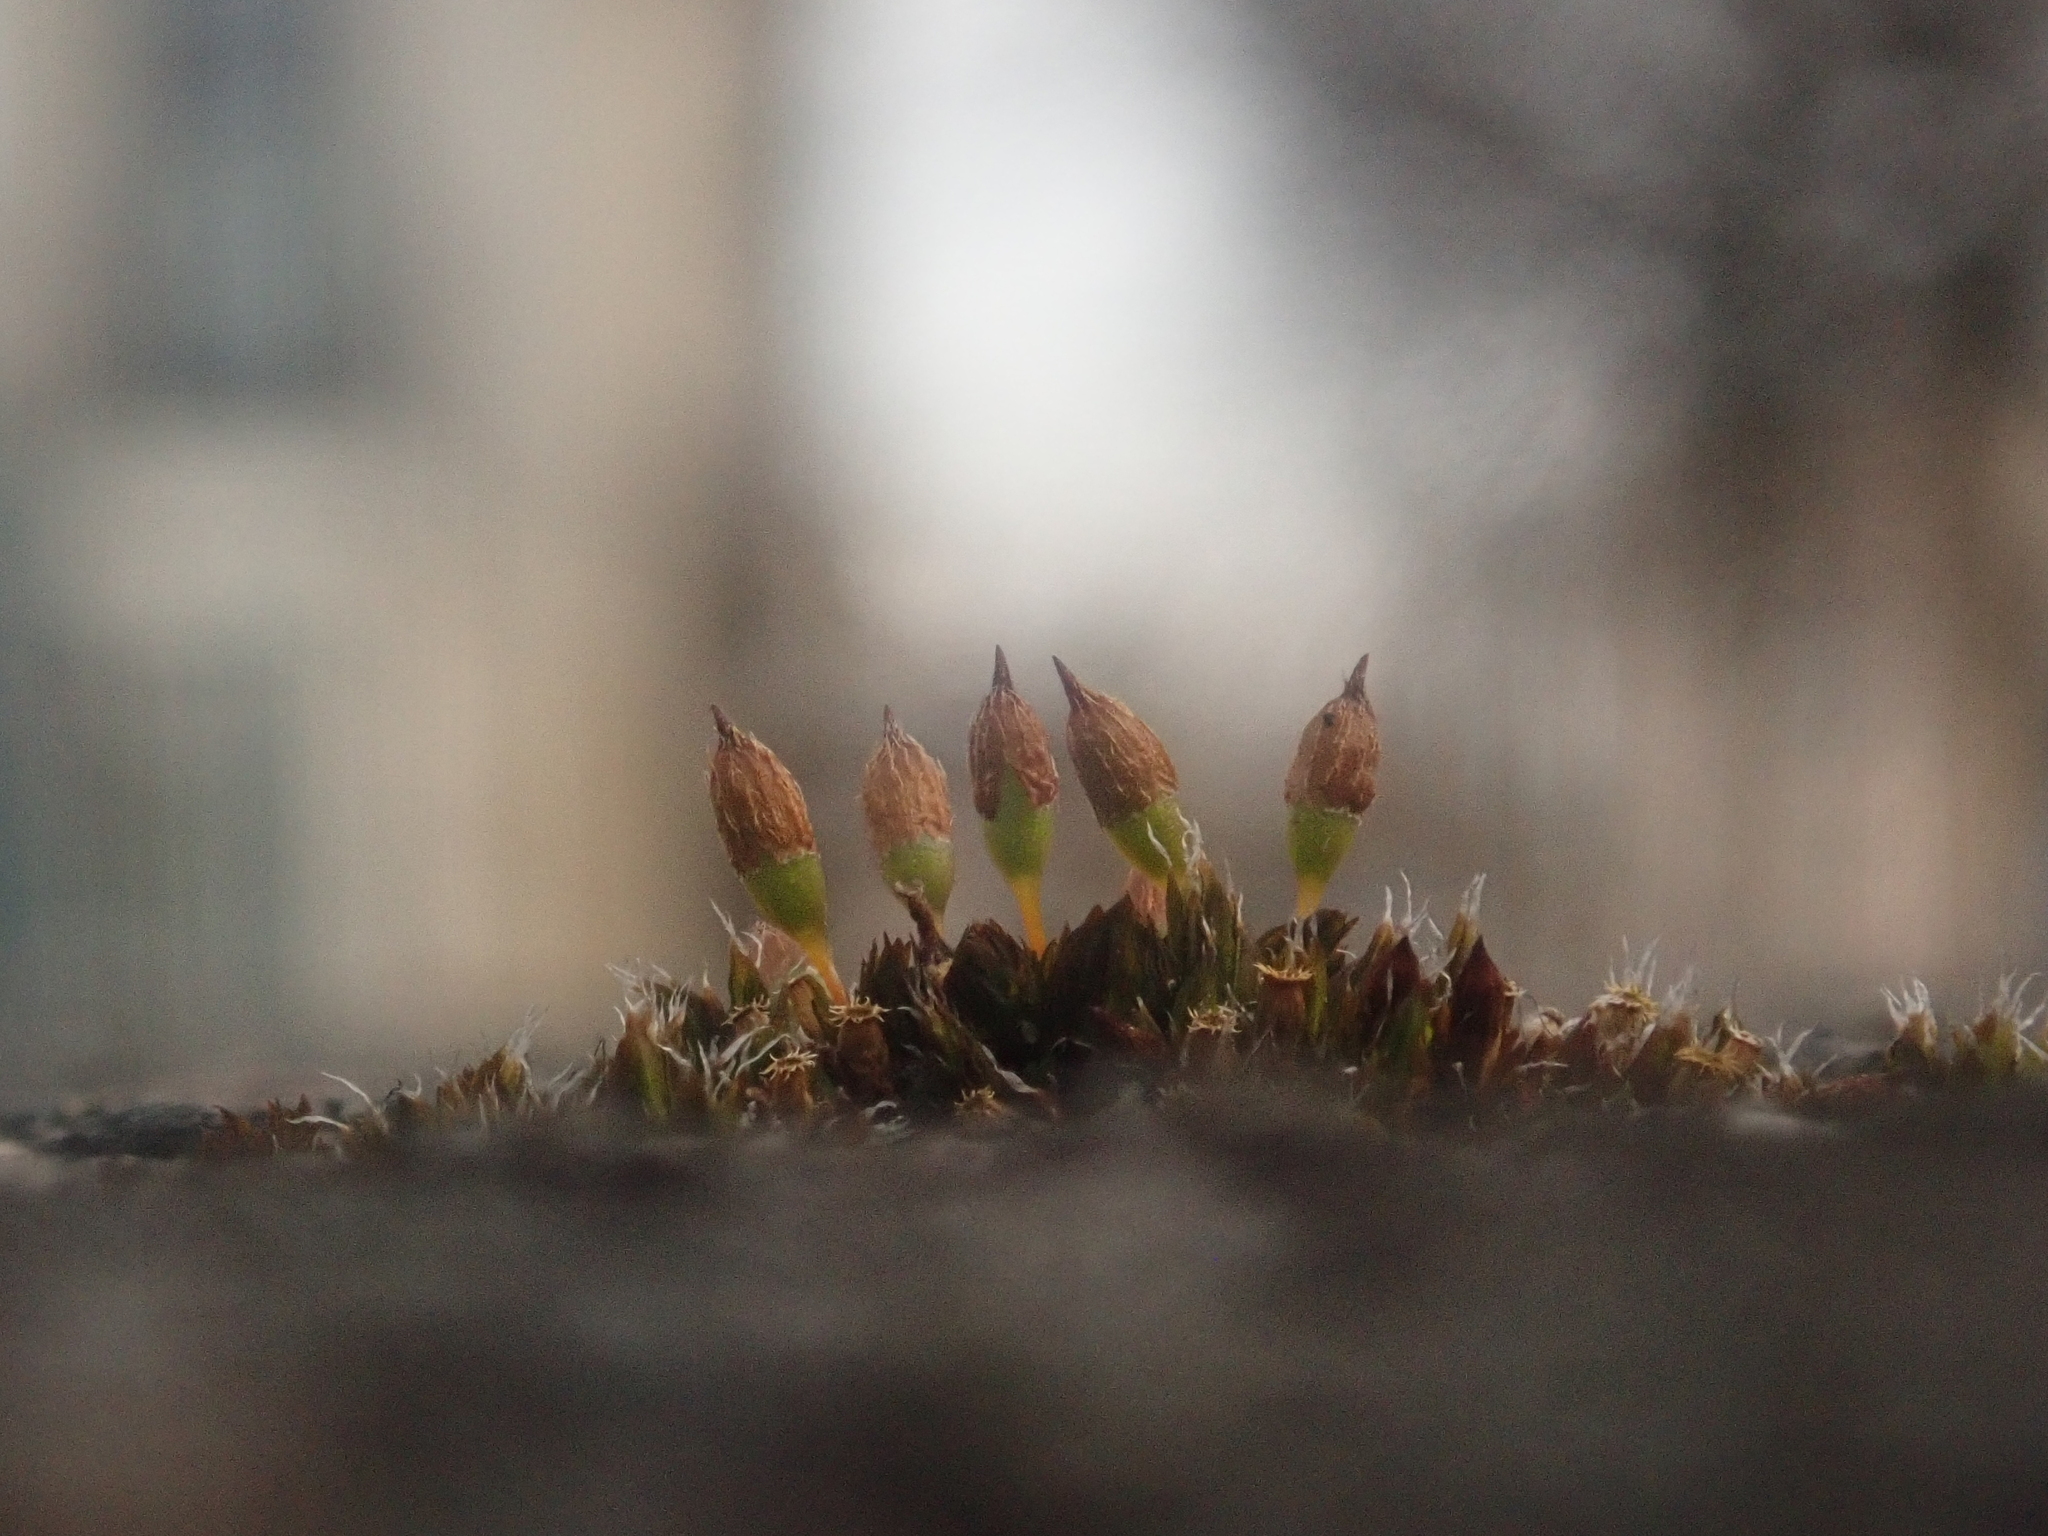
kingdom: Plantae
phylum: Bryophyta
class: Bryopsida
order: Orthotrichales
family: Orthotrichaceae
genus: Orthotrichum
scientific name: Orthotrichum anomalum
